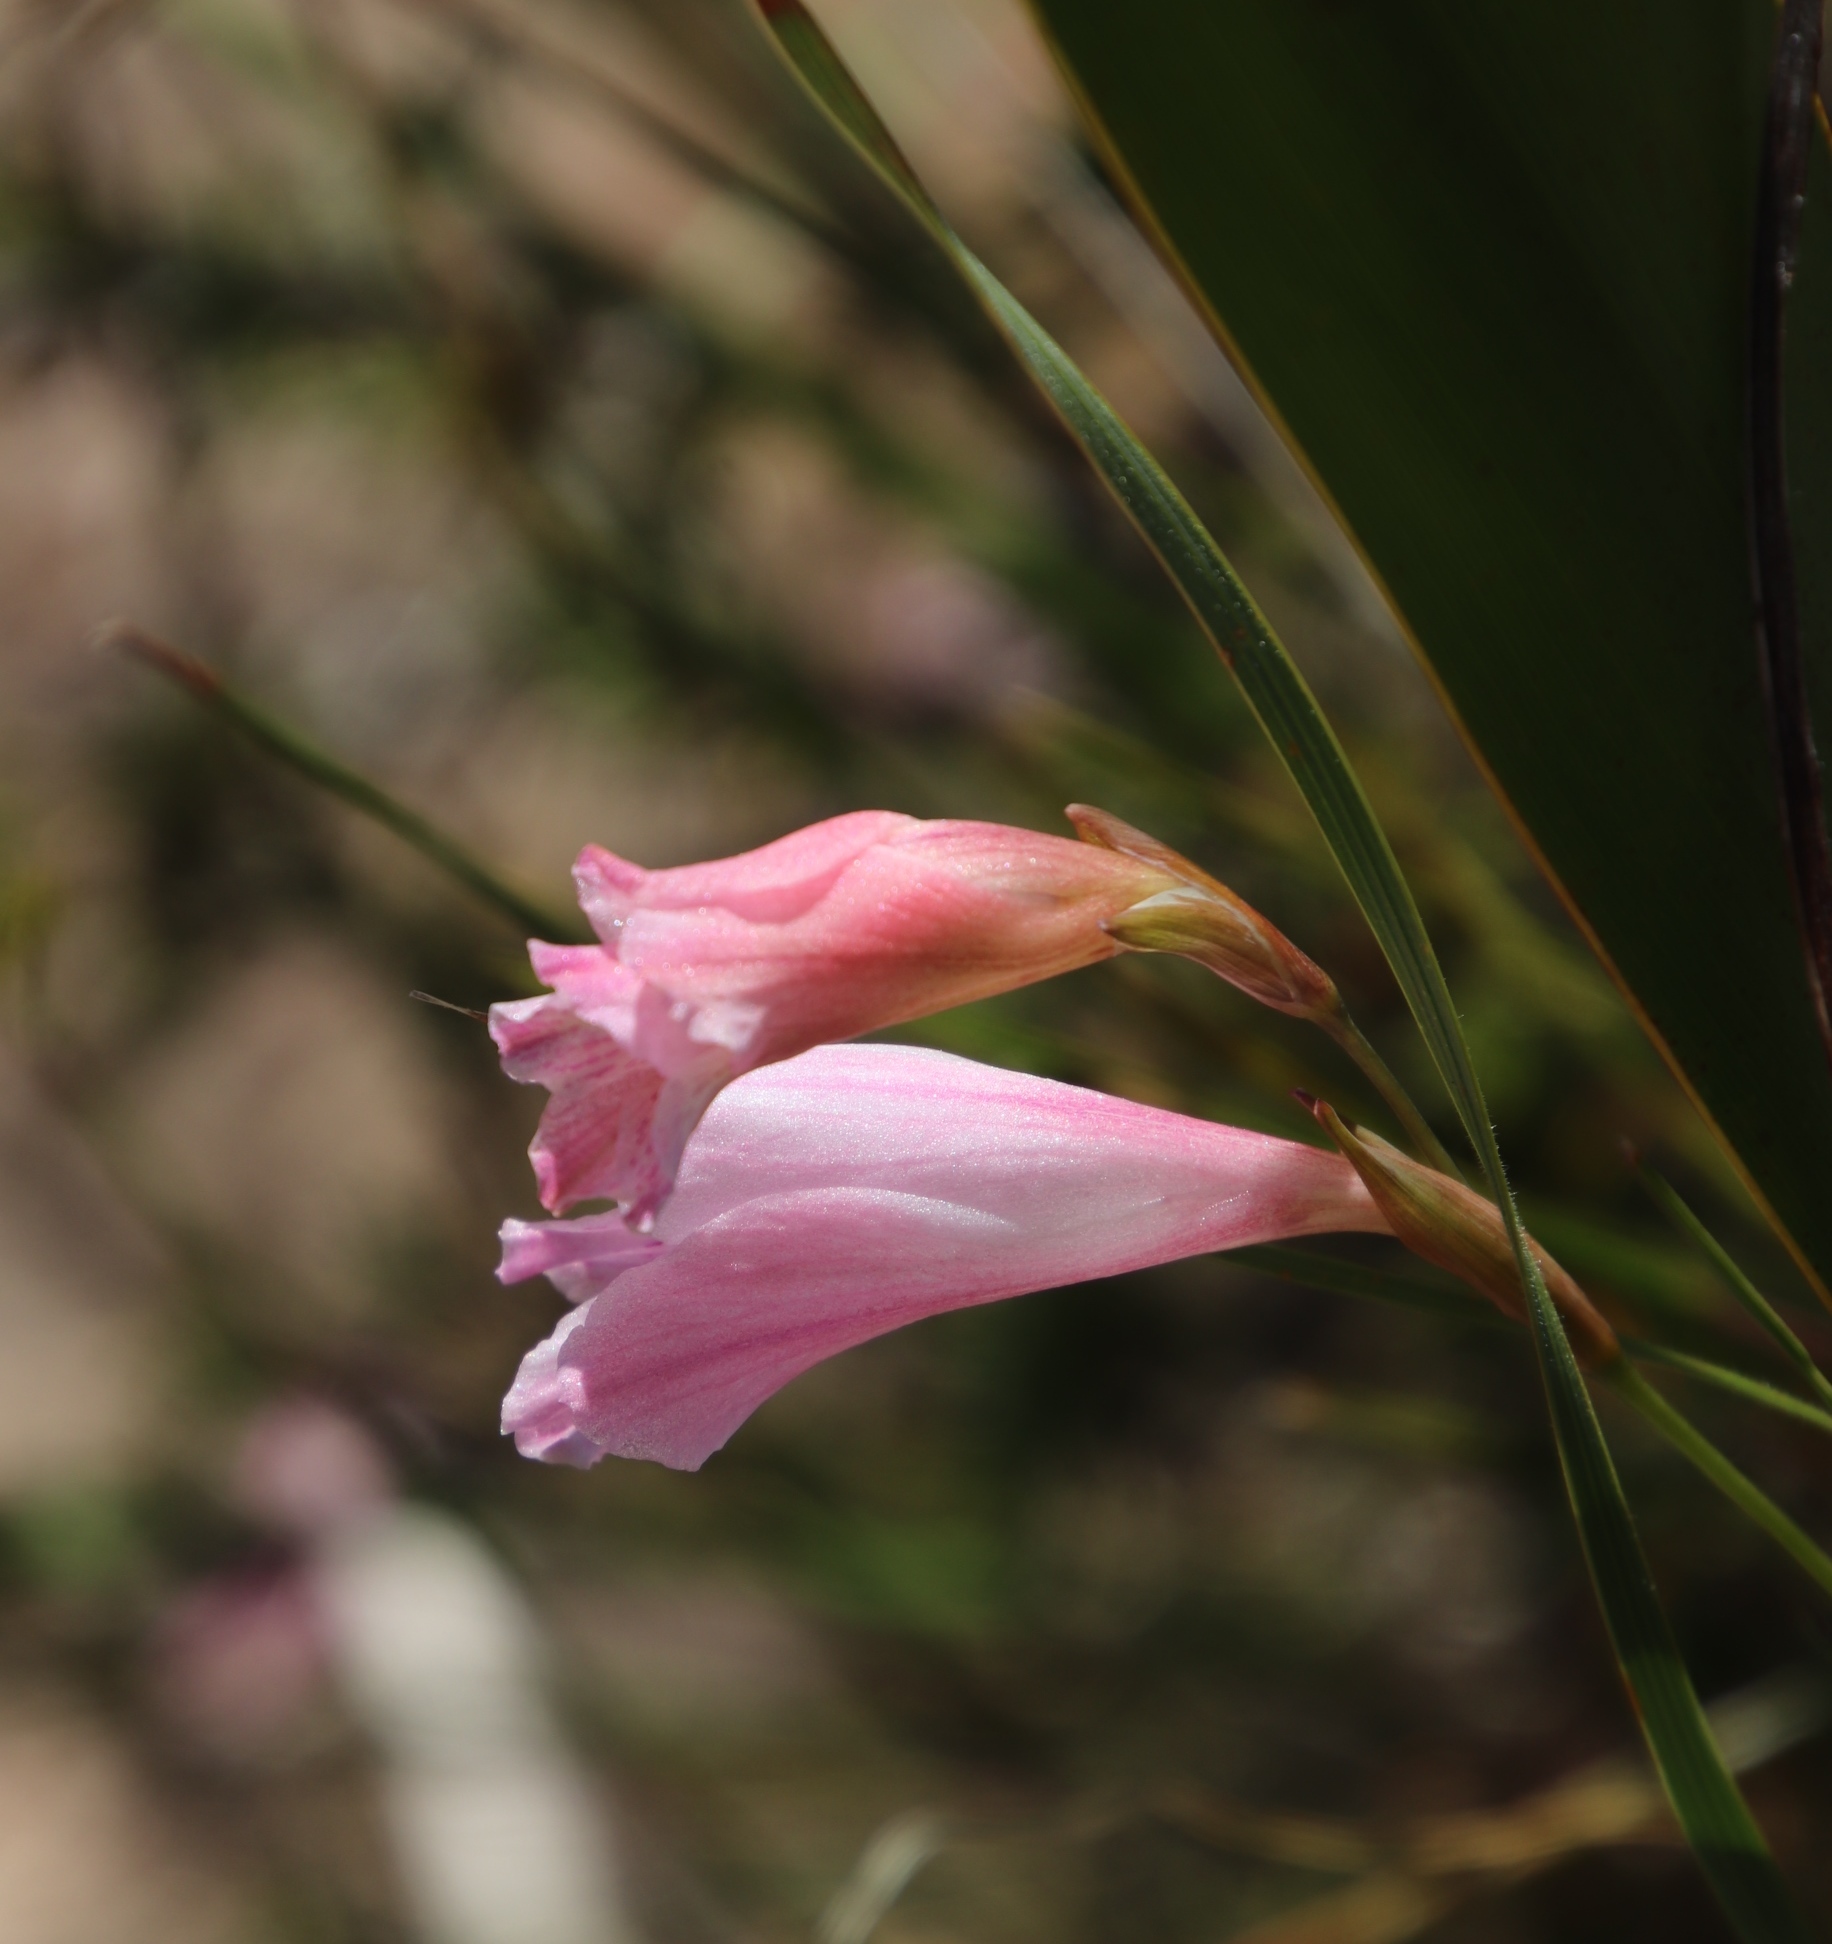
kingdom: Plantae
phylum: Tracheophyta
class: Liliopsida
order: Asparagales
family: Iridaceae
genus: Gladiolus
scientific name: Gladiolus hirsutus
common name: Small pink afrikaner
